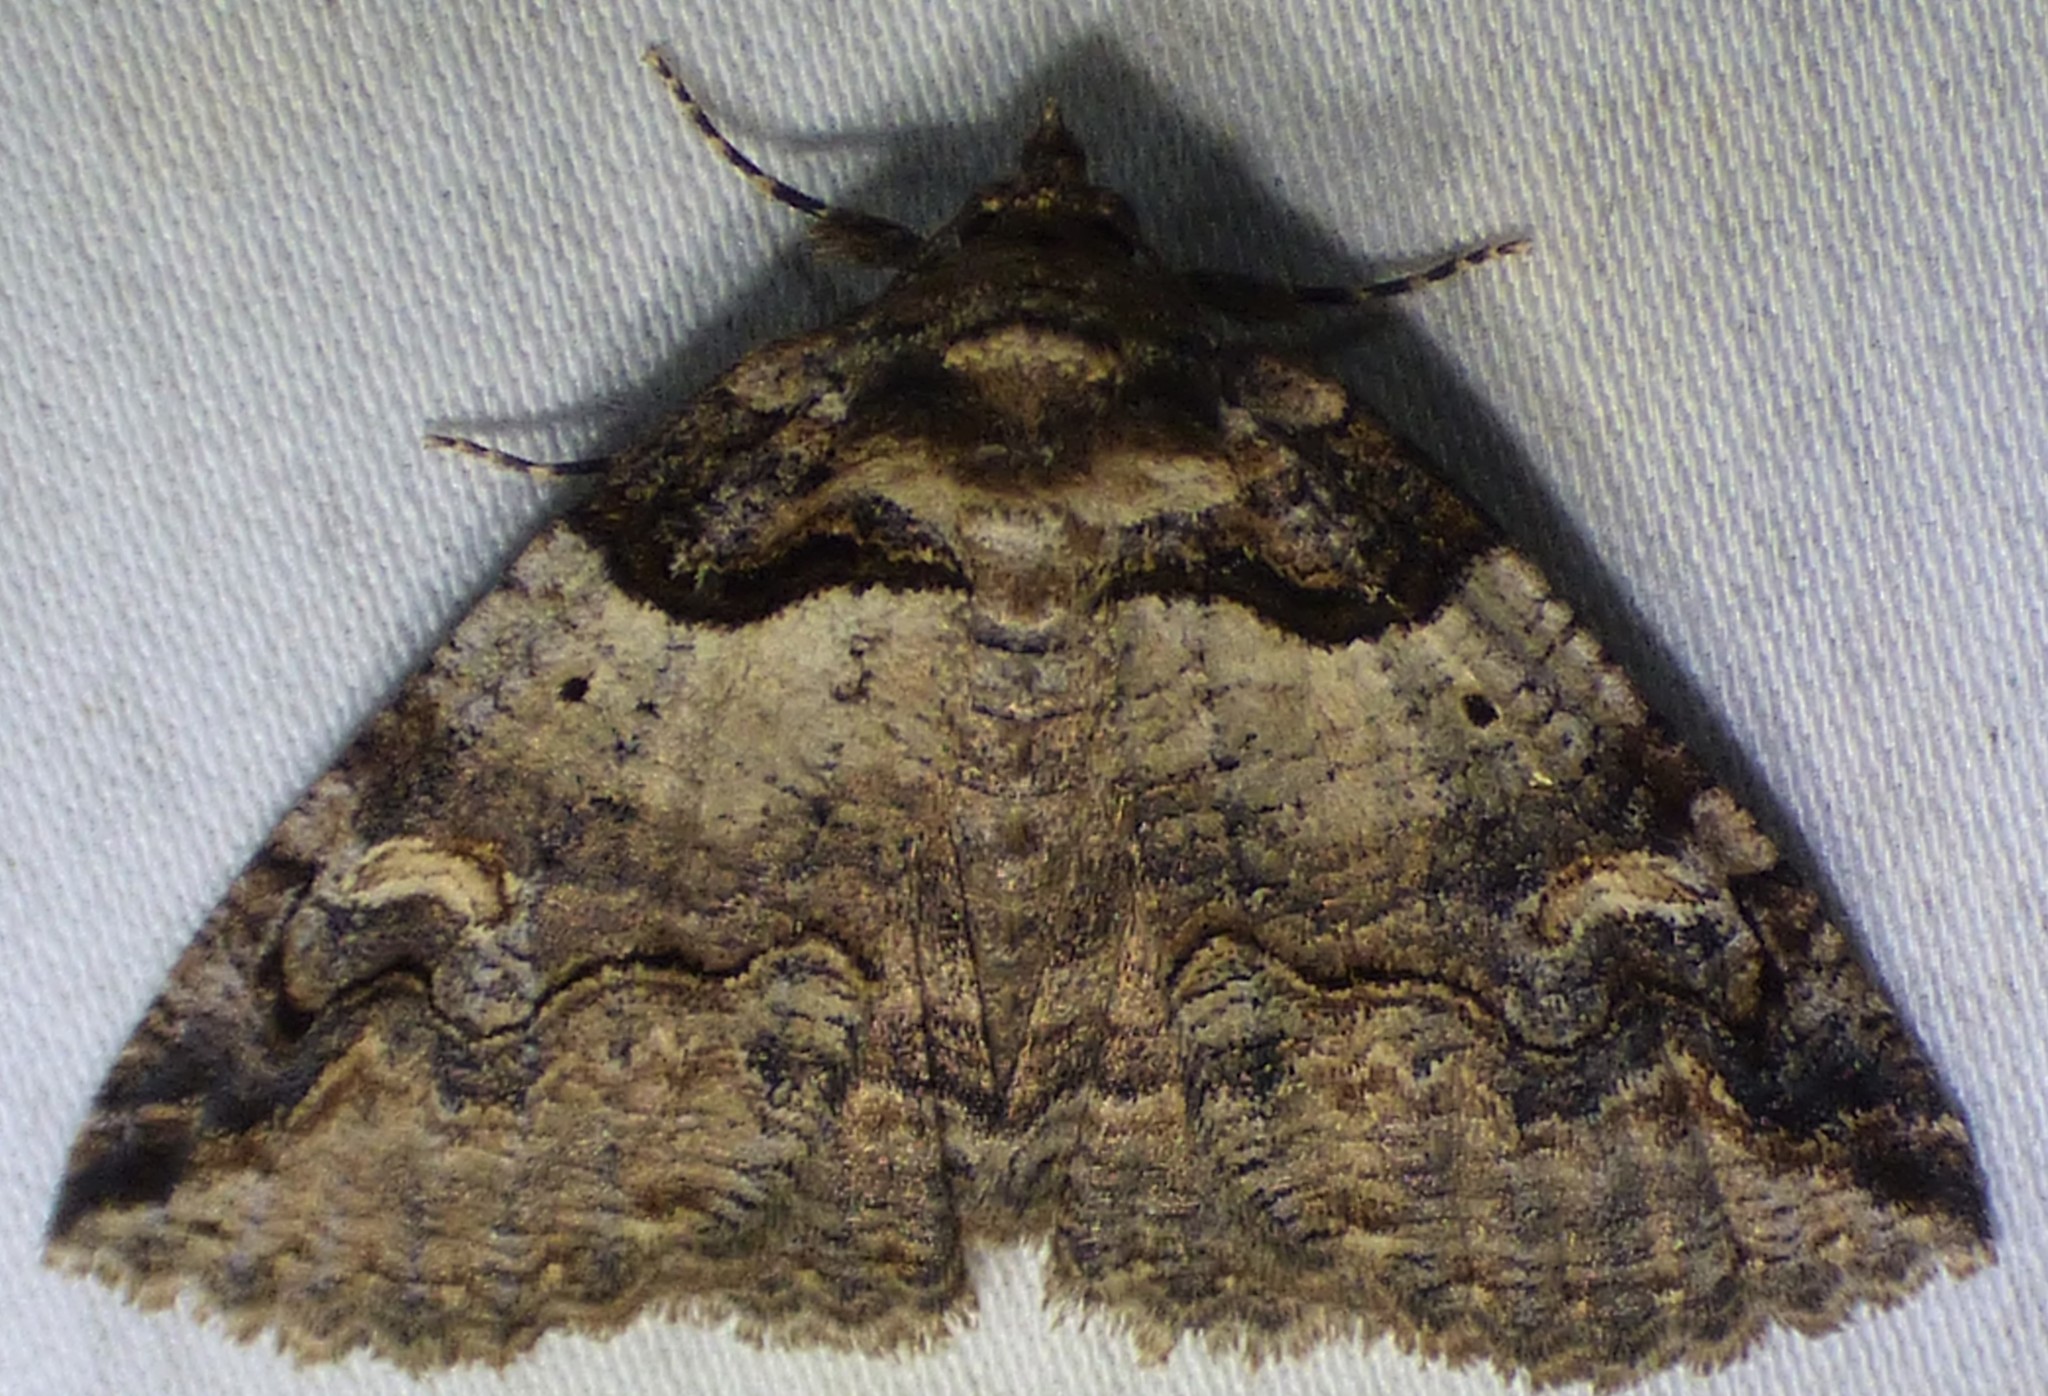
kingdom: Animalia
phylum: Arthropoda
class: Insecta
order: Lepidoptera
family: Erebidae
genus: Zale
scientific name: Zale intenta
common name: Intent zale moth
